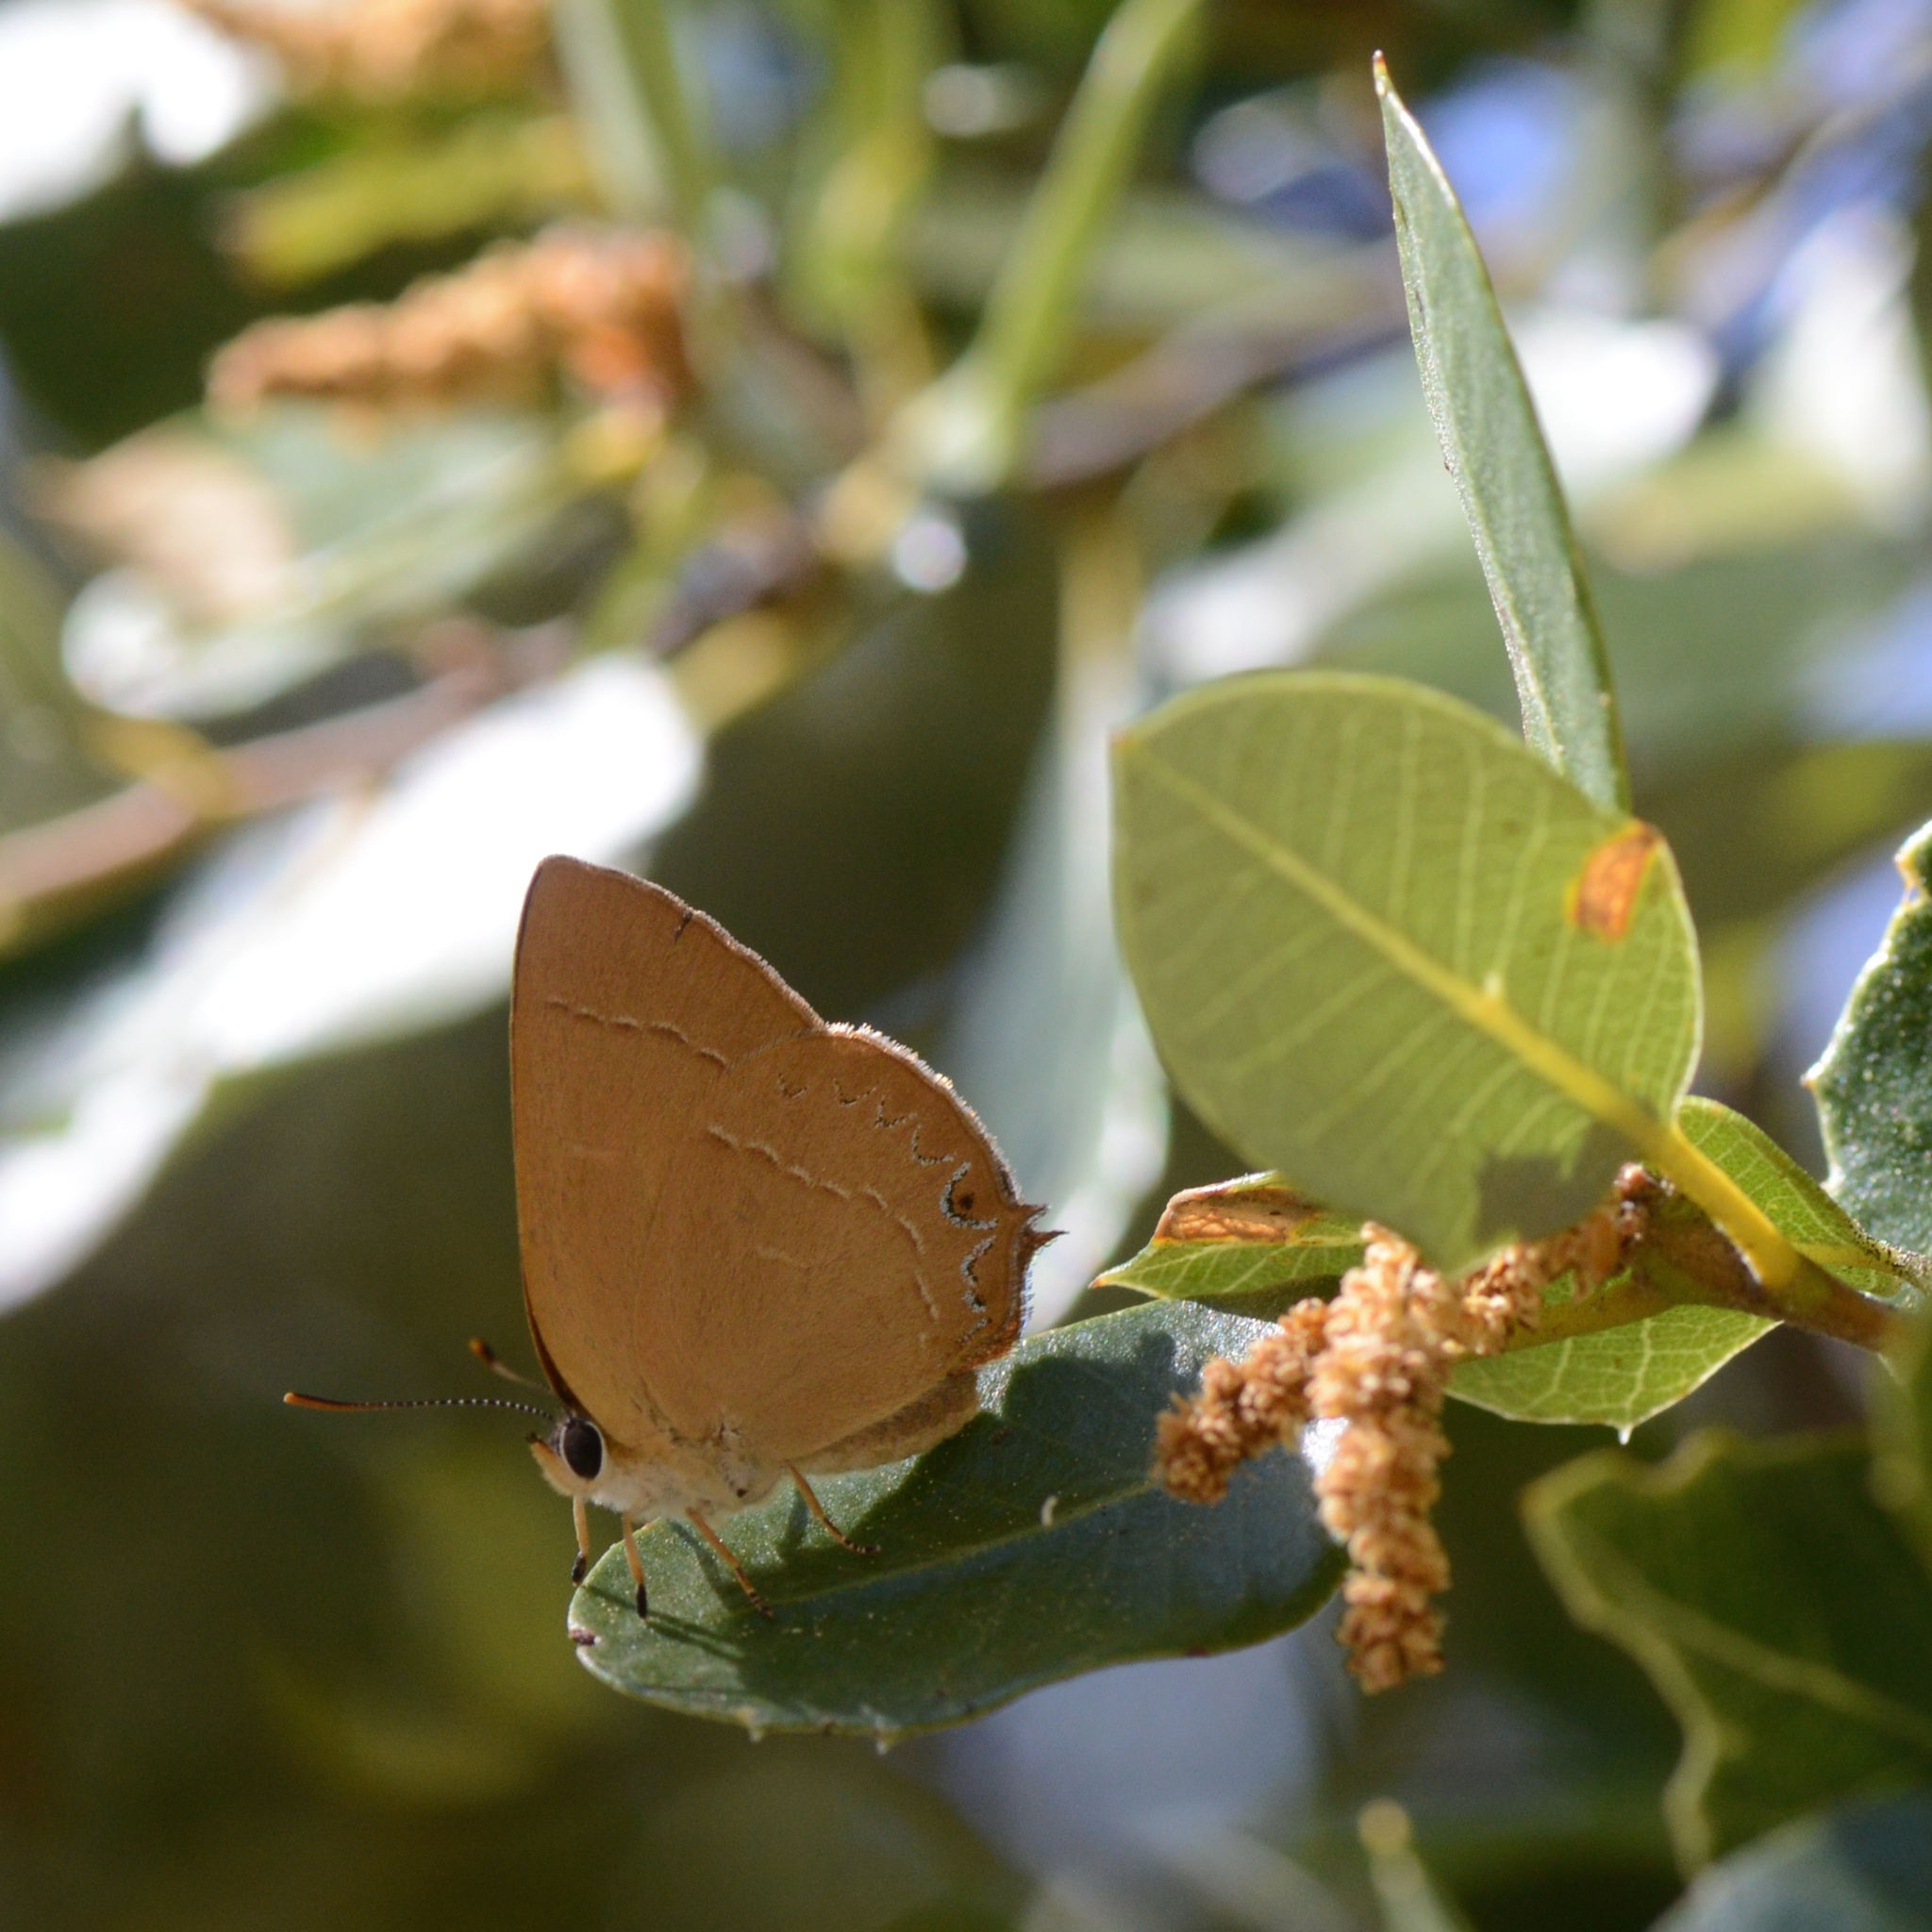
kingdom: Animalia
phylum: Arthropoda
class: Insecta
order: Lepidoptera
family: Lycaenidae
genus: Habrodais
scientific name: Habrodais grunus
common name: Golden hairstreak
